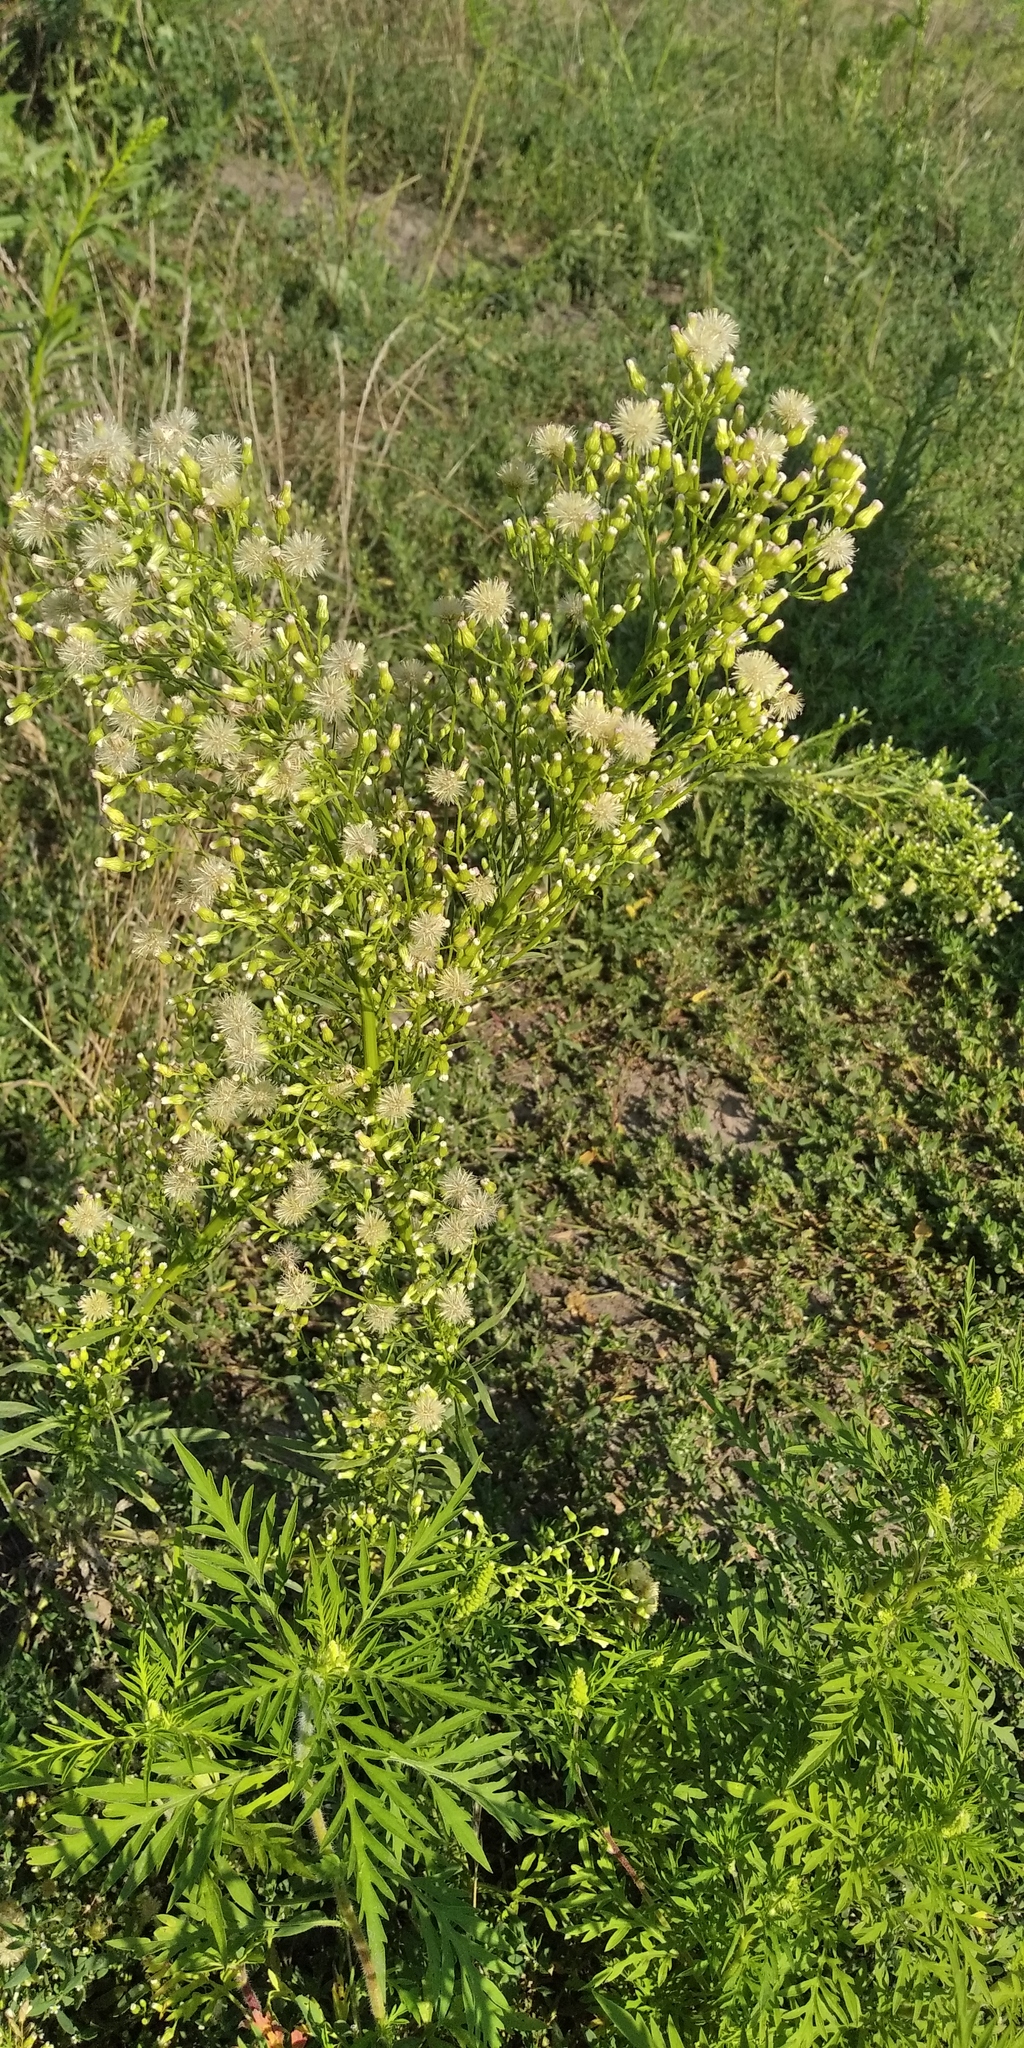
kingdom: Plantae
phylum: Tracheophyta
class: Magnoliopsida
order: Asterales
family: Asteraceae
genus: Erigeron
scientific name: Erigeron canadensis
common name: Canadian fleabane
